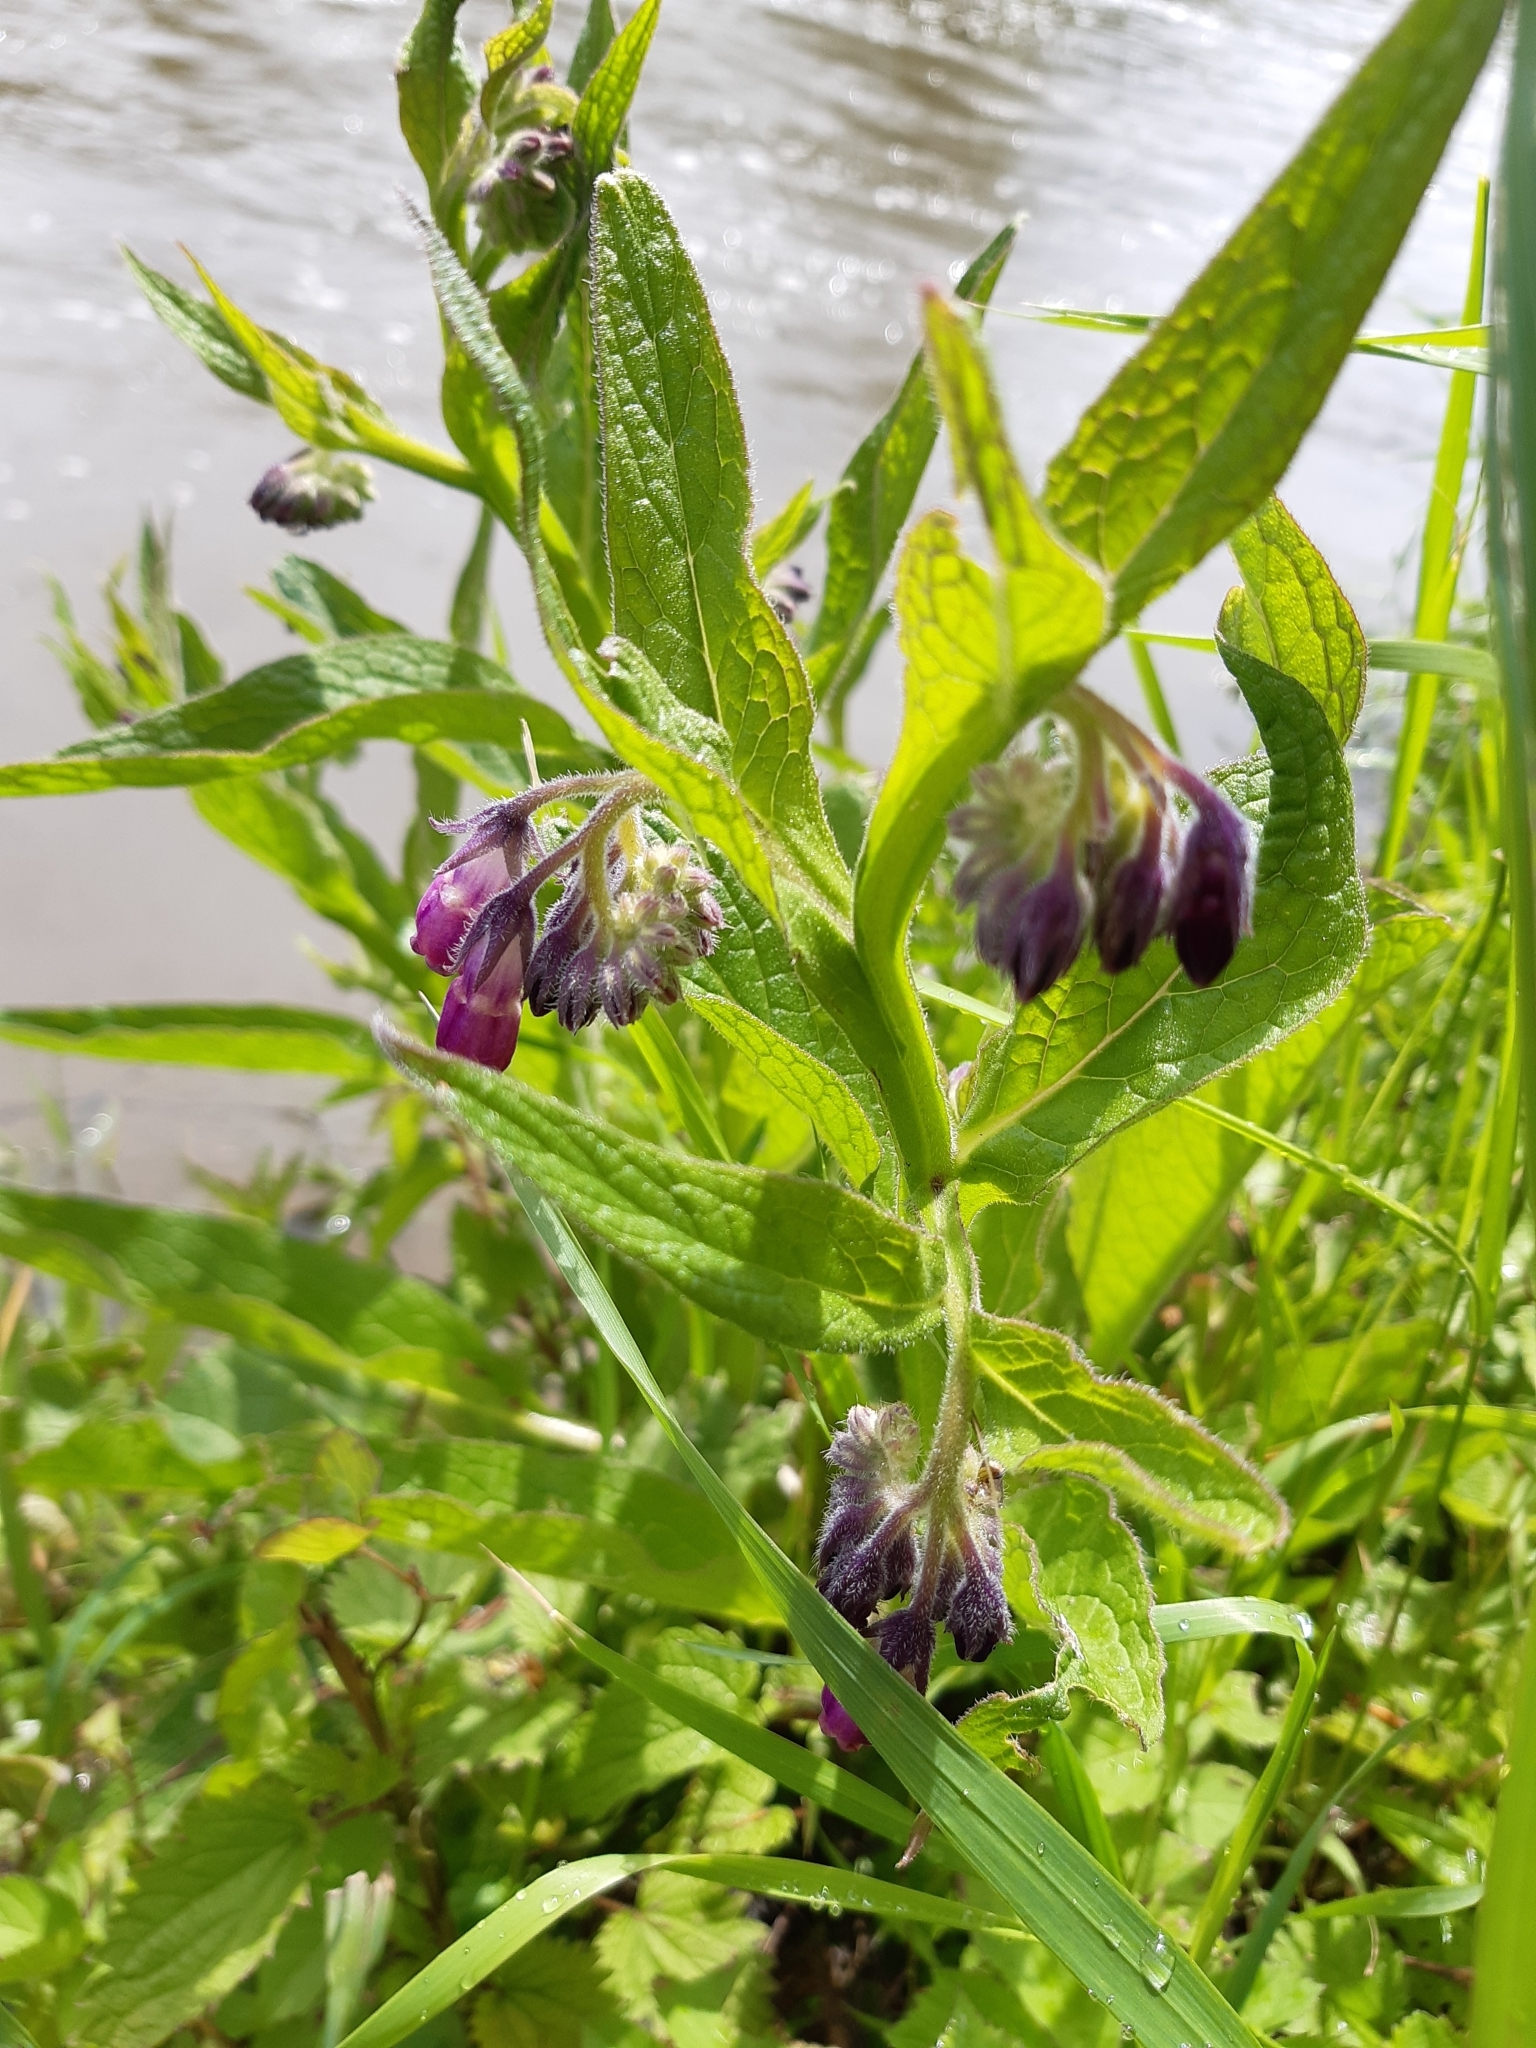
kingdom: Plantae
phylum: Tracheophyta
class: Magnoliopsida
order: Boraginales
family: Boraginaceae
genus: Symphytum
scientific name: Symphytum officinale
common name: Common comfrey
